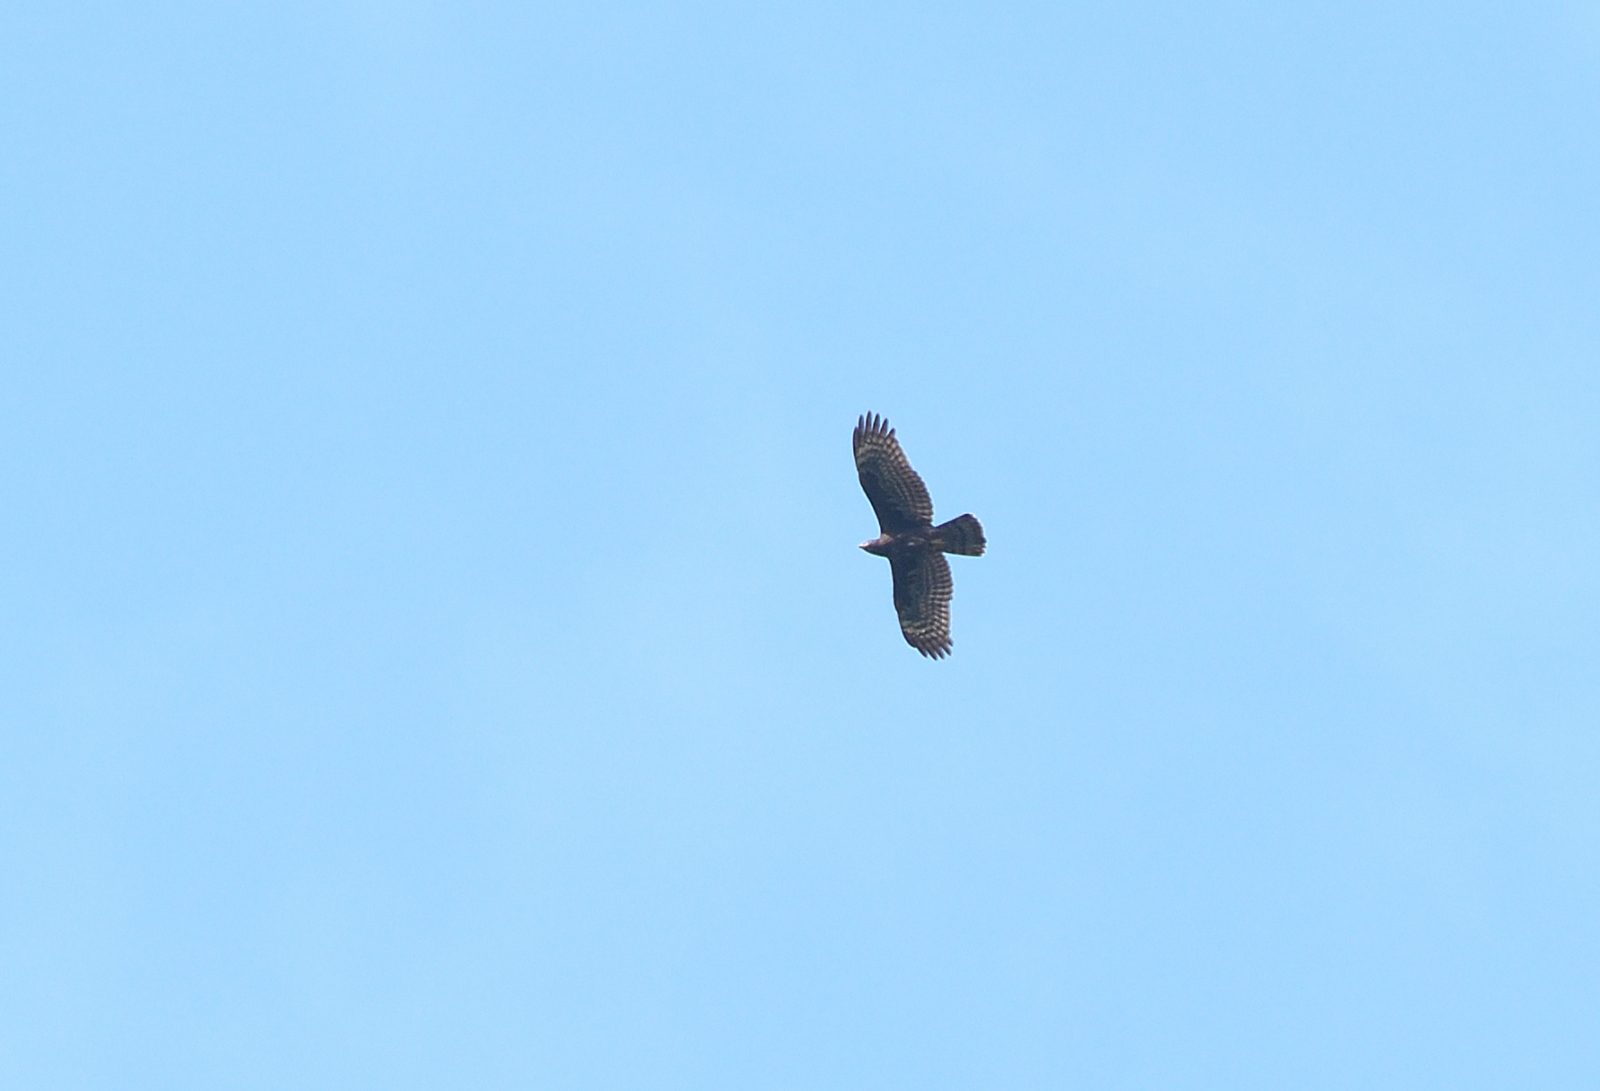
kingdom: Animalia
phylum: Chordata
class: Aves
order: Accipitriformes
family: Accipitridae
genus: Pernis
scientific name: Pernis ptilorhynchus
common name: Crested honey buzzard
